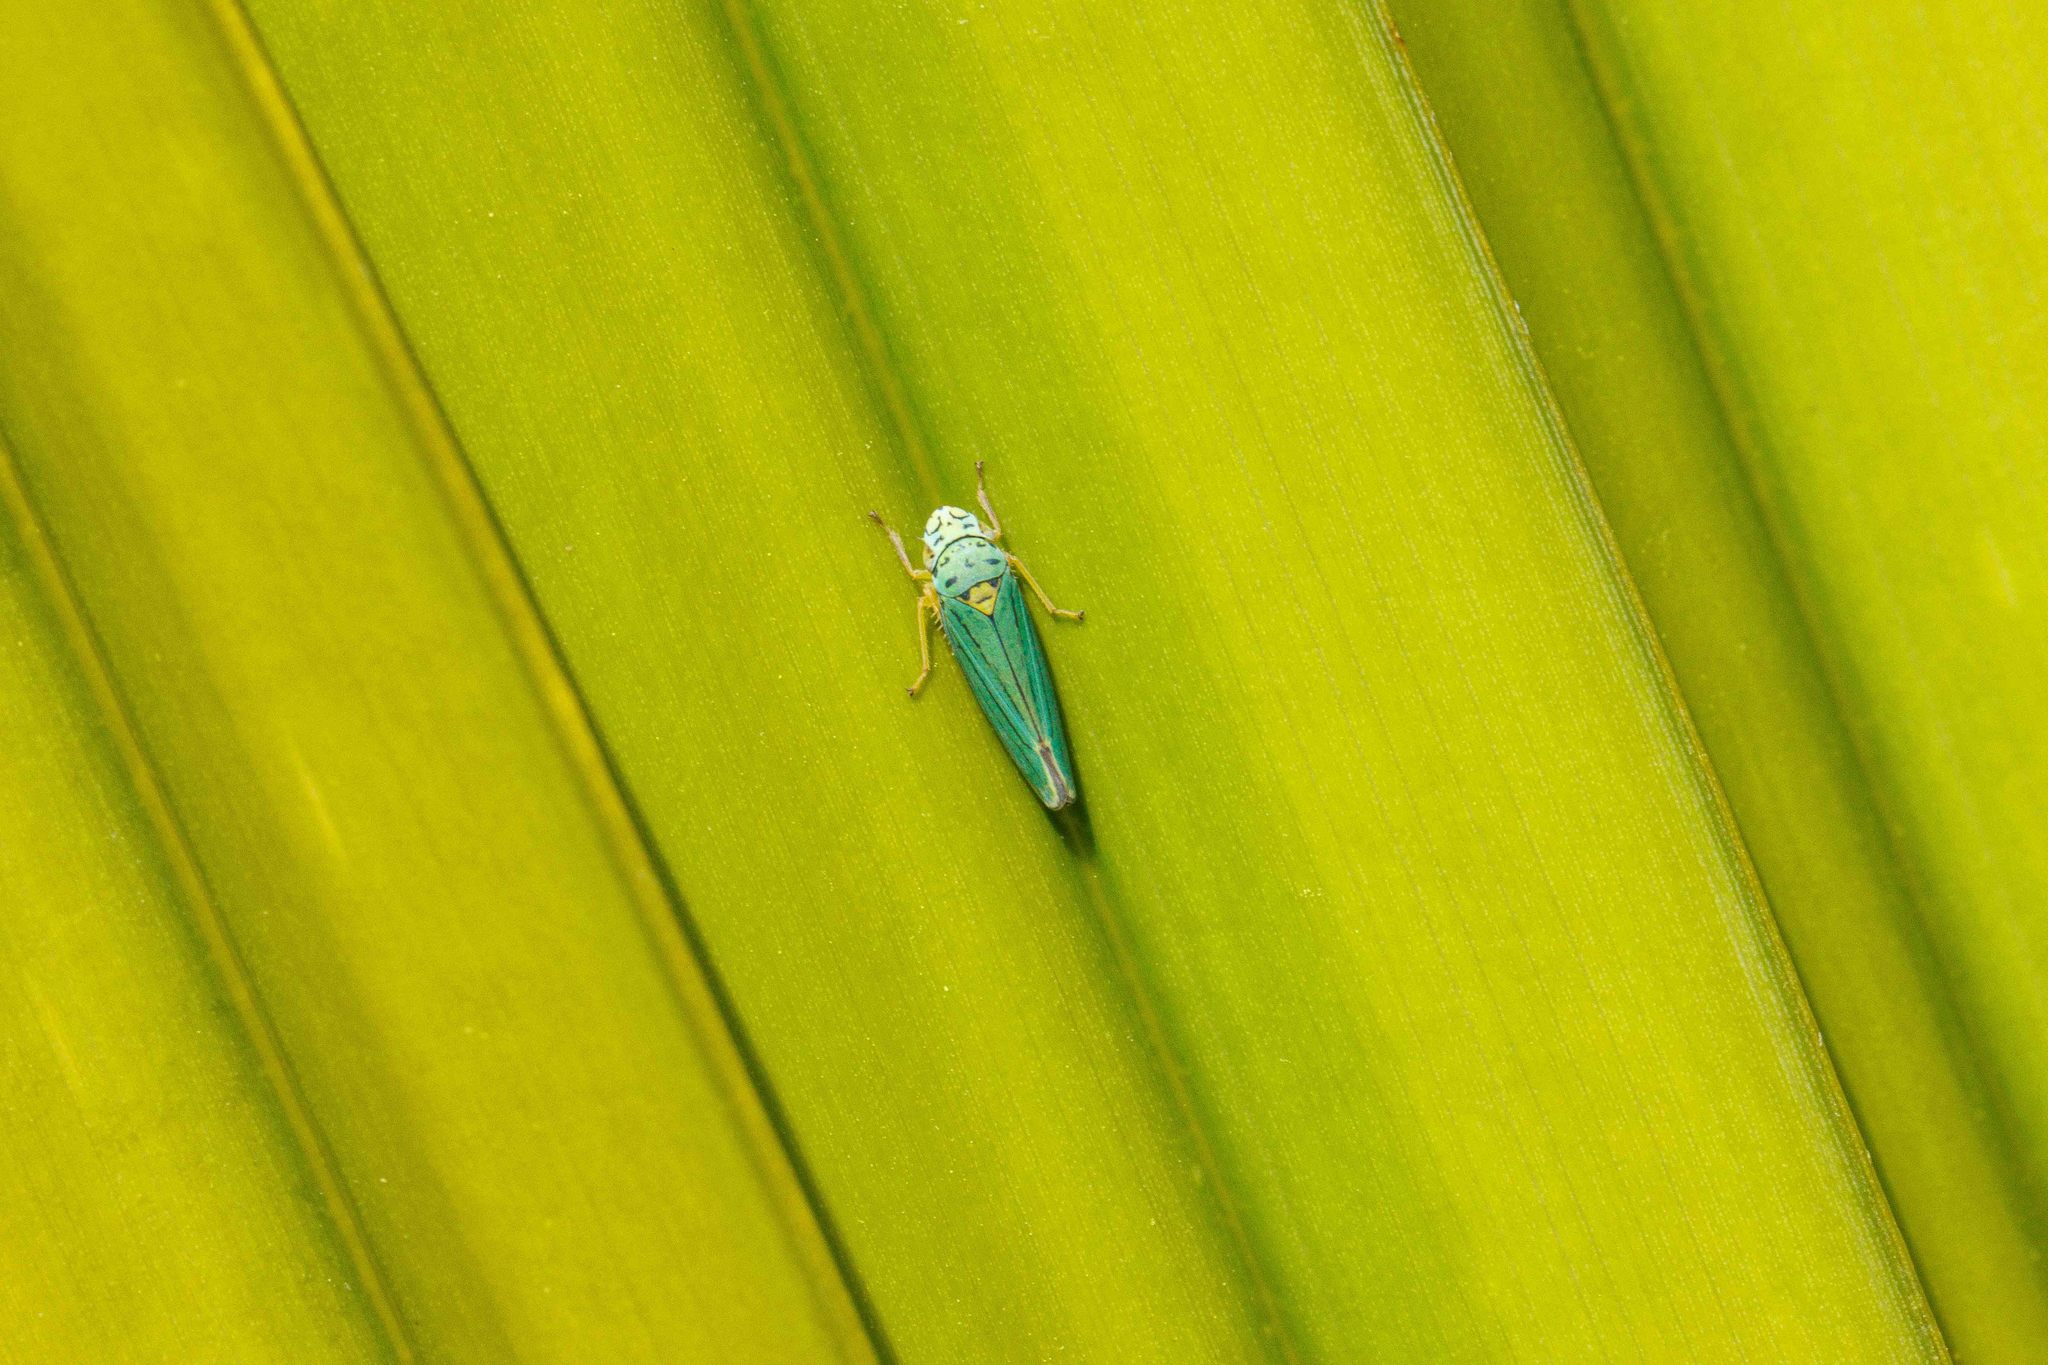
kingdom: Animalia
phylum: Arthropoda
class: Insecta
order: Hemiptera
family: Cicadellidae
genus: Graphocephala
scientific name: Graphocephala atropunctata
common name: Blue-green sharpshooter
